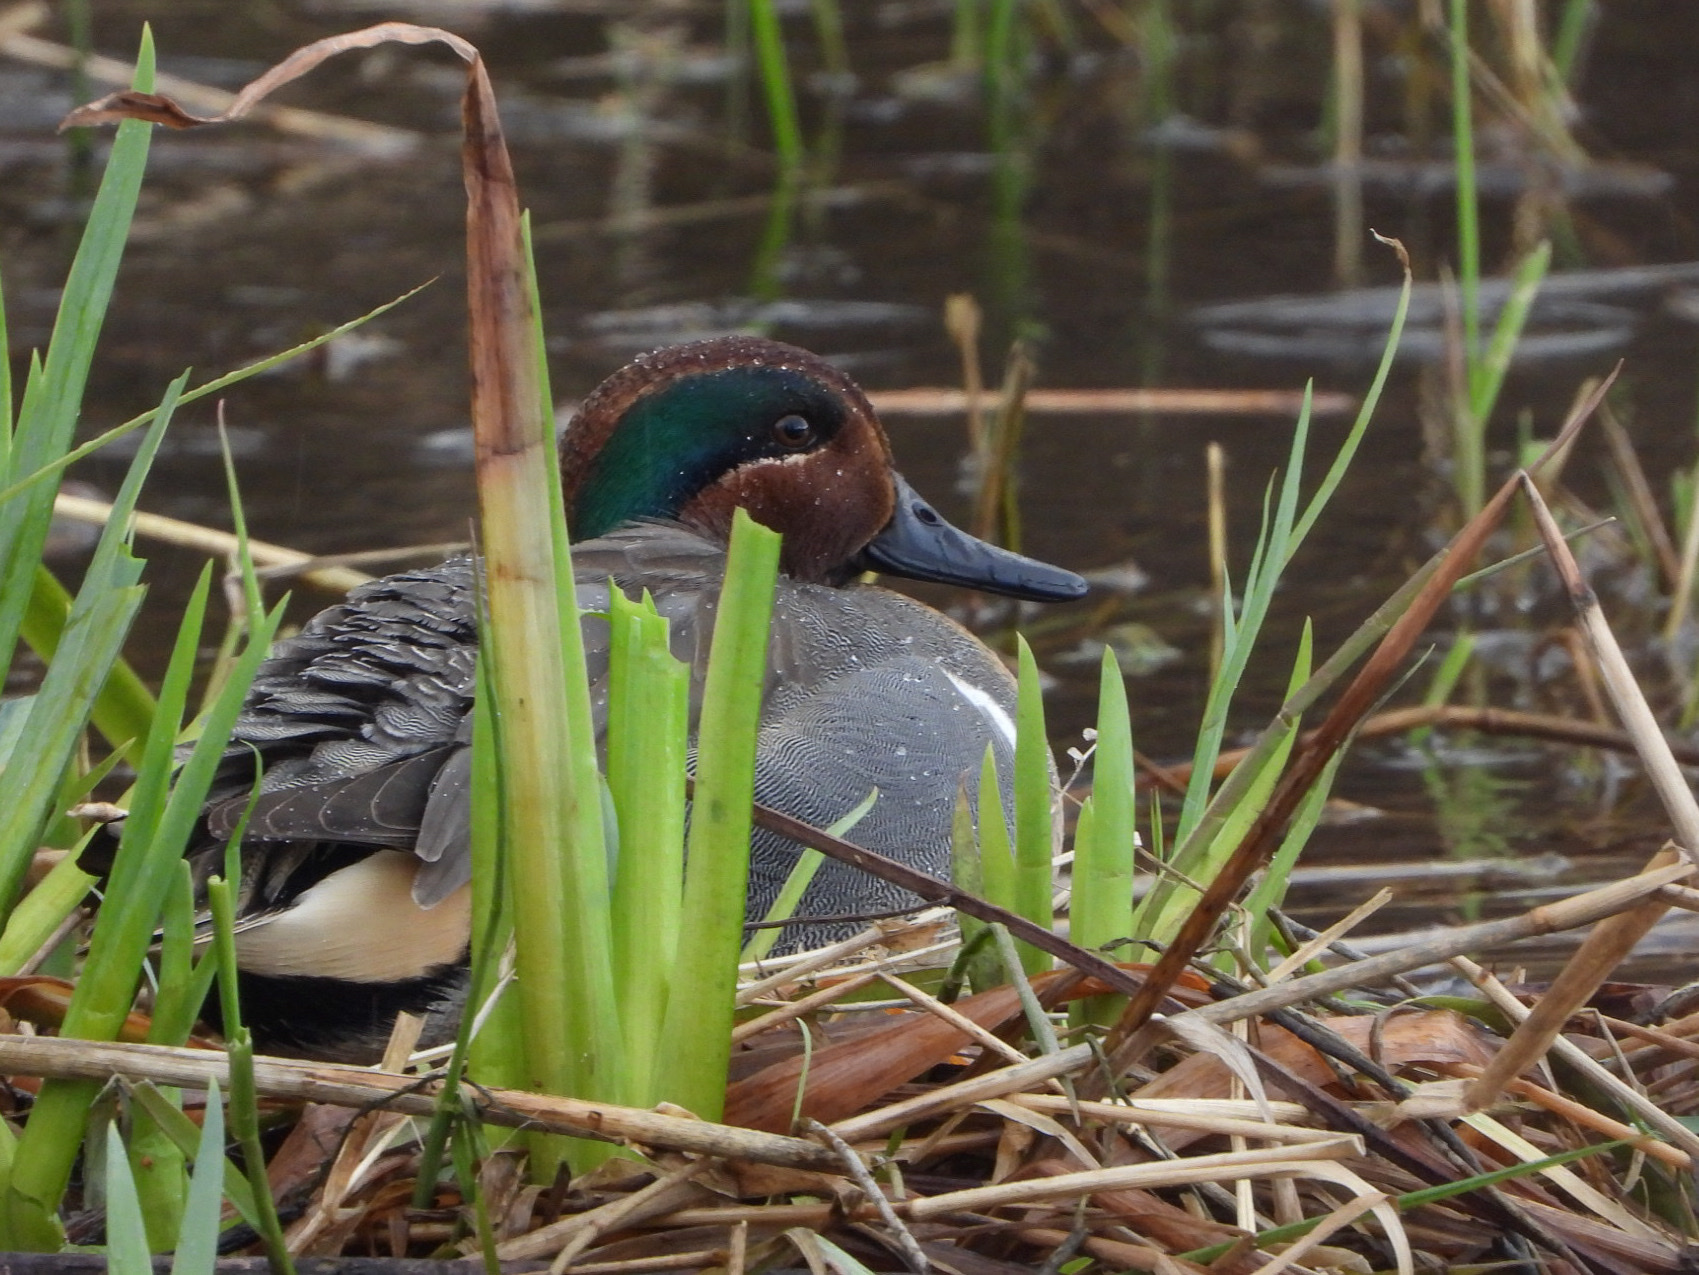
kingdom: Animalia
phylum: Chordata
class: Aves
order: Anseriformes
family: Anatidae
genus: Anas
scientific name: Anas carolinensis
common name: Green-winged teal
